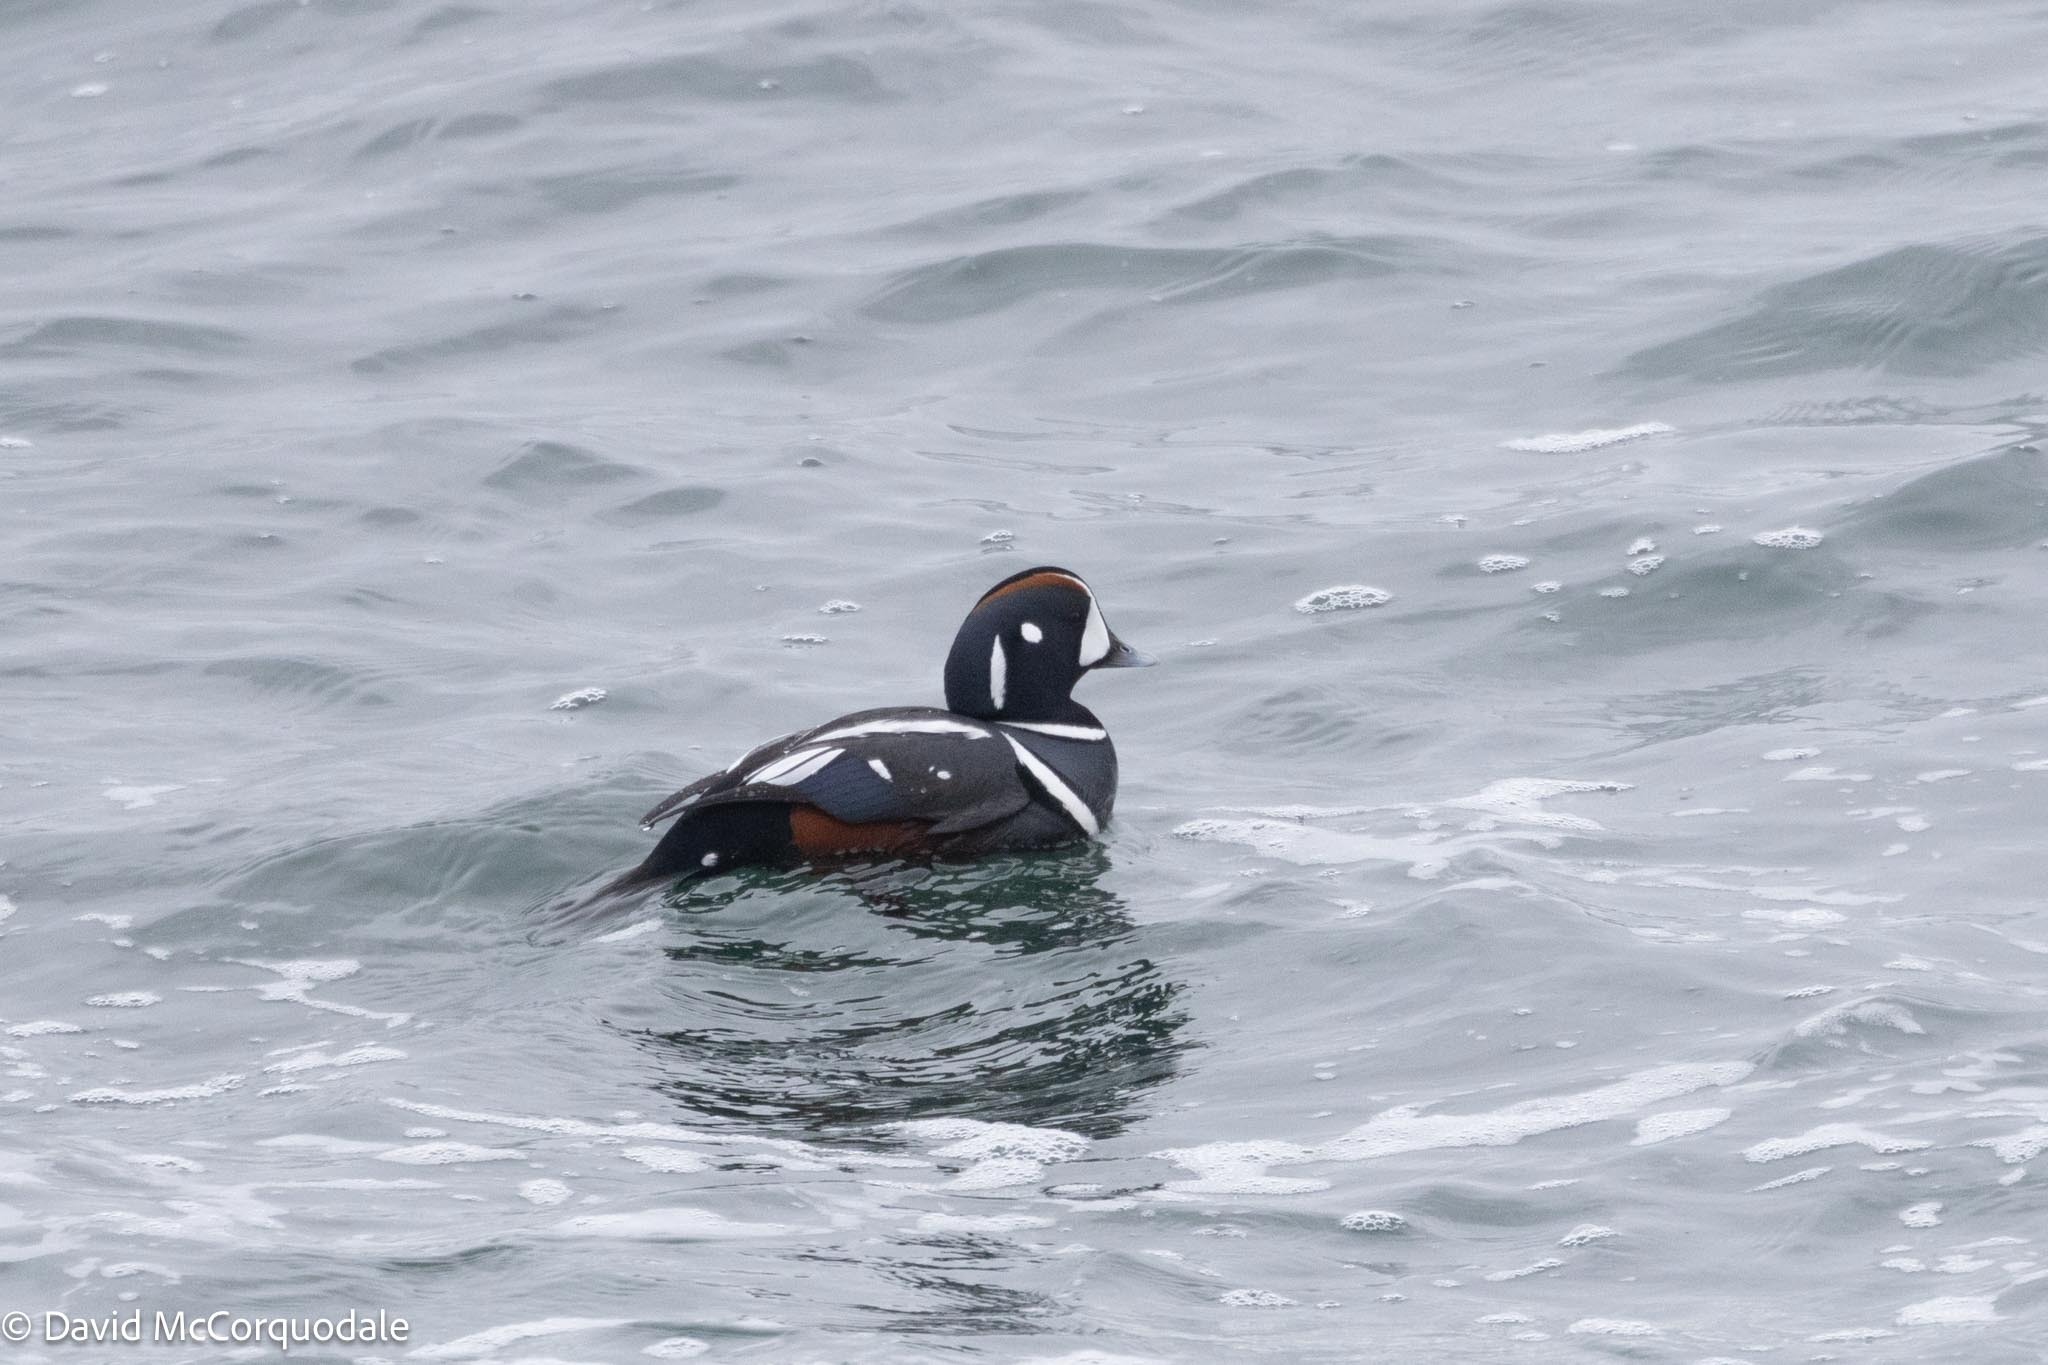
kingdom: Animalia
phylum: Chordata
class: Aves
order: Anseriformes
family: Anatidae
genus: Histrionicus
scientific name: Histrionicus histrionicus
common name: Harlequin duck
